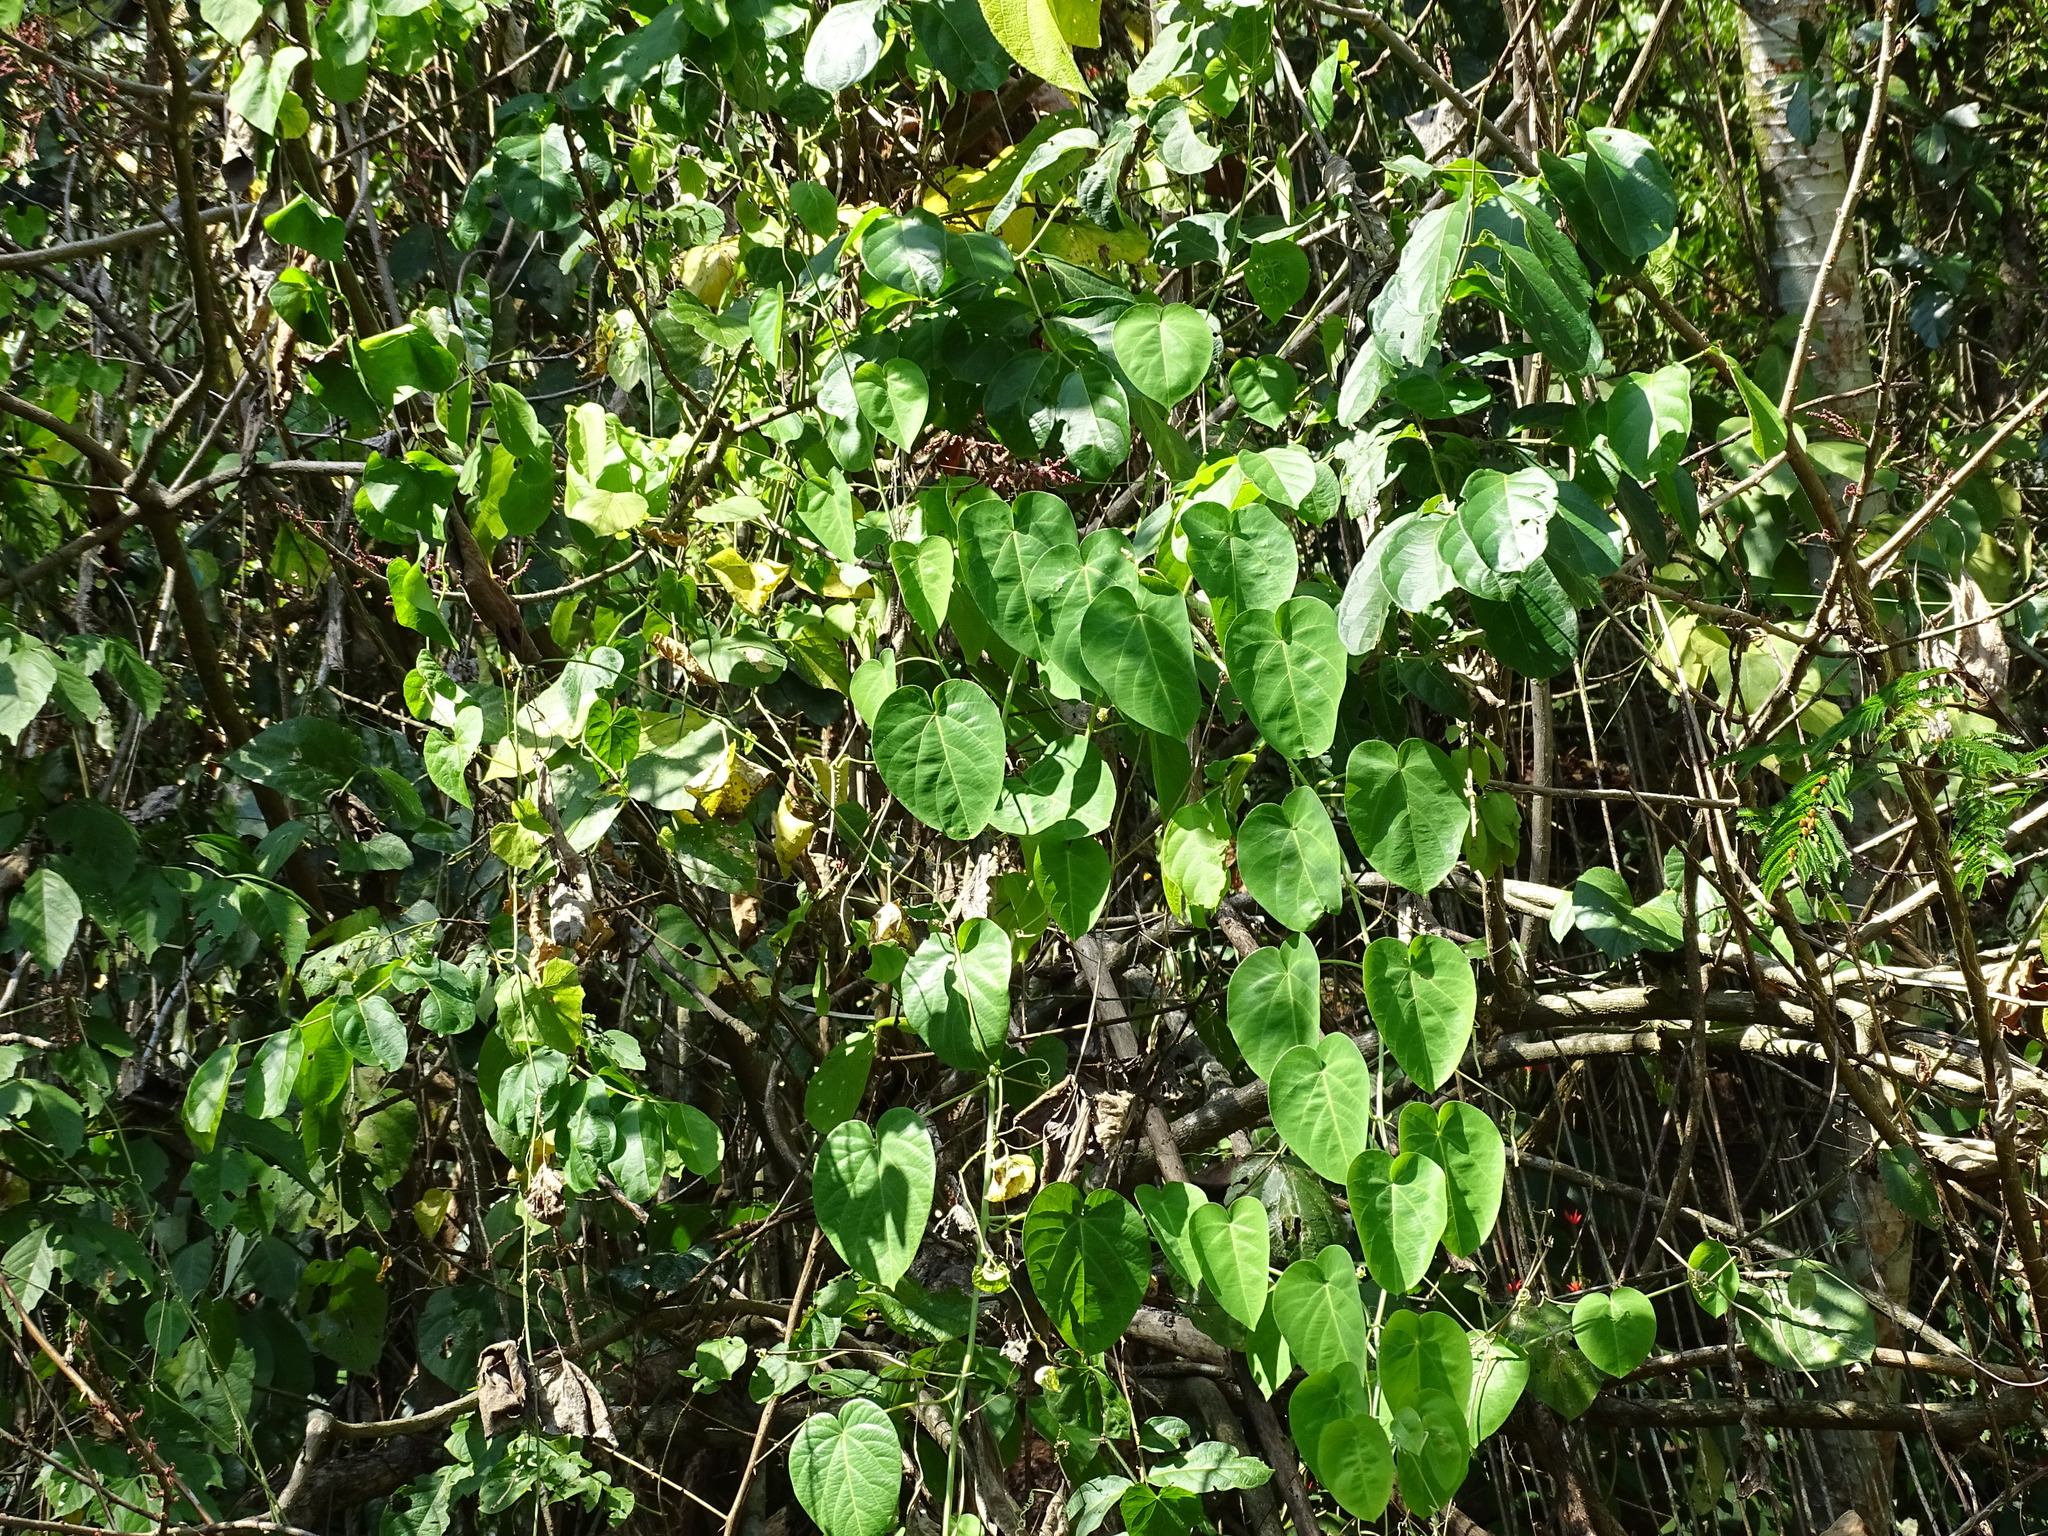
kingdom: Plantae
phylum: Tracheophyta
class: Magnoliopsida
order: Malpighiales
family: Passifloraceae
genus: Passiflora
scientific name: Passiflora seemannii
